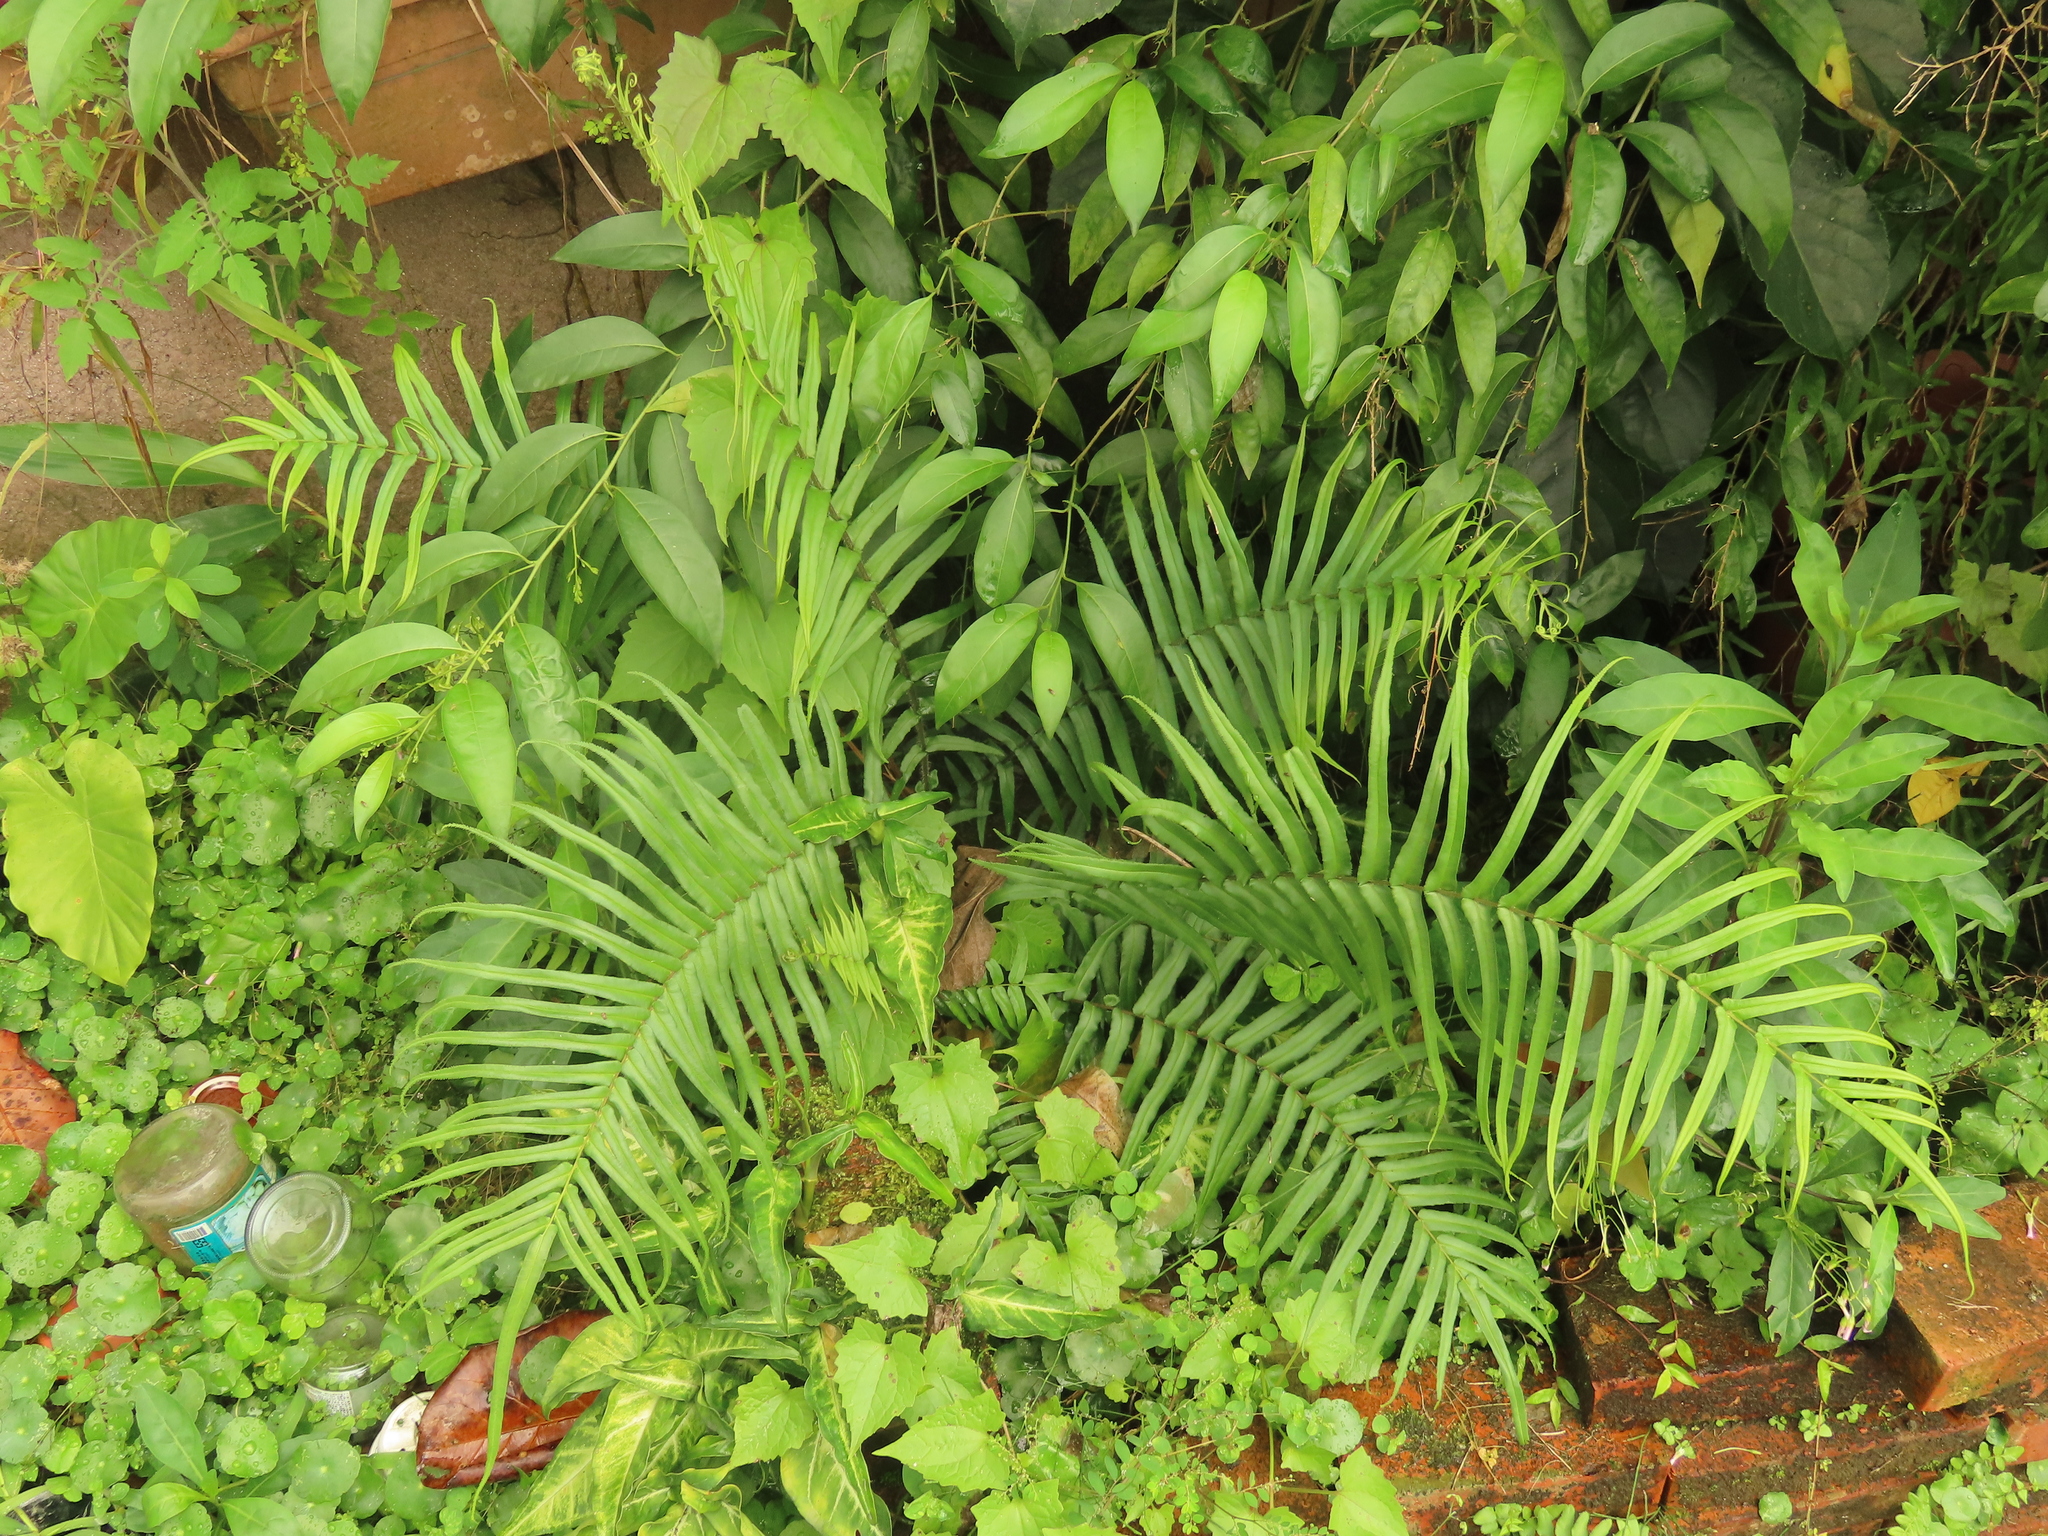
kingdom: Plantae
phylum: Tracheophyta
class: Polypodiopsida
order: Polypodiales
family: Pteridaceae
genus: Pteris
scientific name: Pteris vittata
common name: Ladder brake
